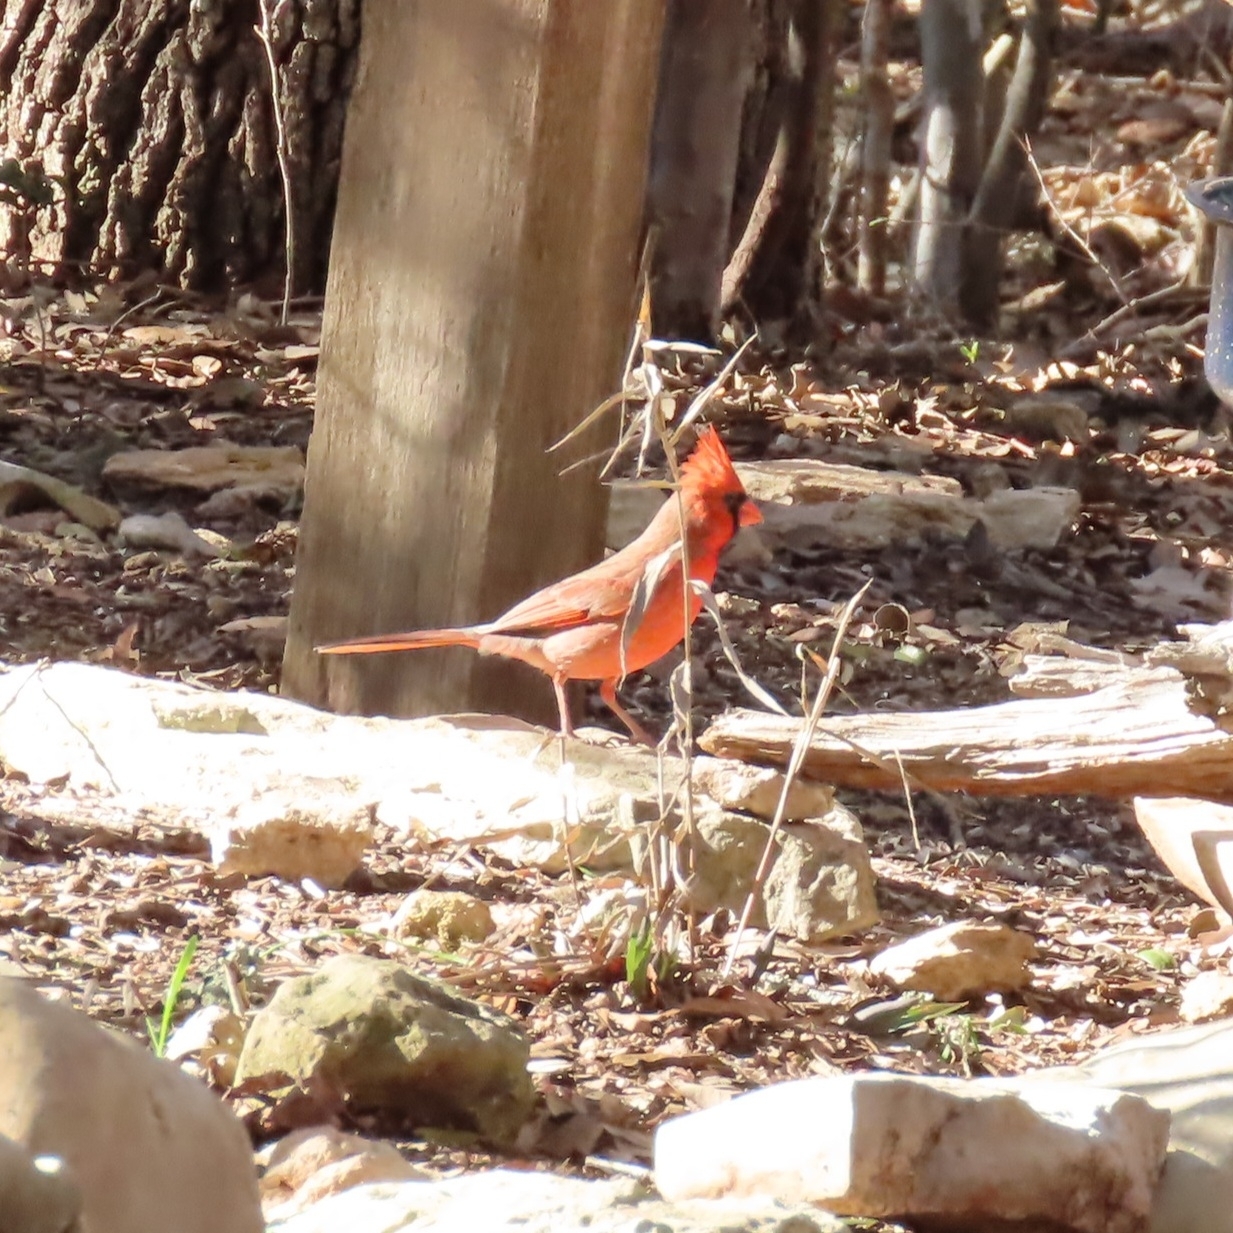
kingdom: Animalia
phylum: Chordata
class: Aves
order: Passeriformes
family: Cardinalidae
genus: Cardinalis
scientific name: Cardinalis cardinalis
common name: Northern cardinal
